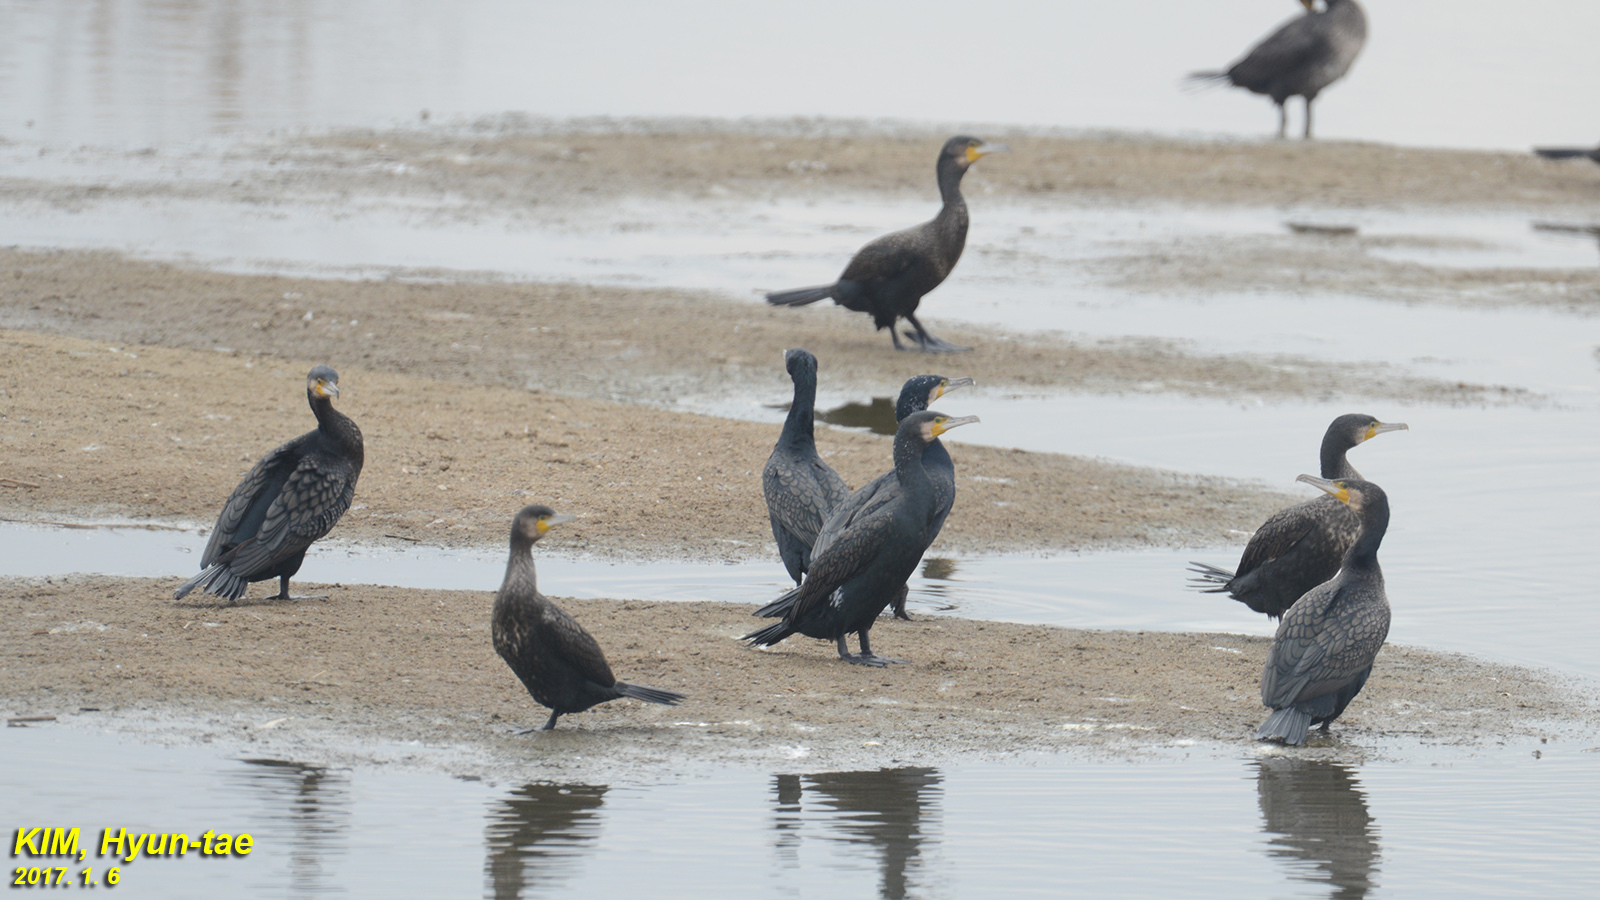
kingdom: Animalia
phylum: Chordata
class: Aves
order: Suliformes
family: Phalacrocoracidae
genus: Phalacrocorax
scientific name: Phalacrocorax carbo
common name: Great cormorant
